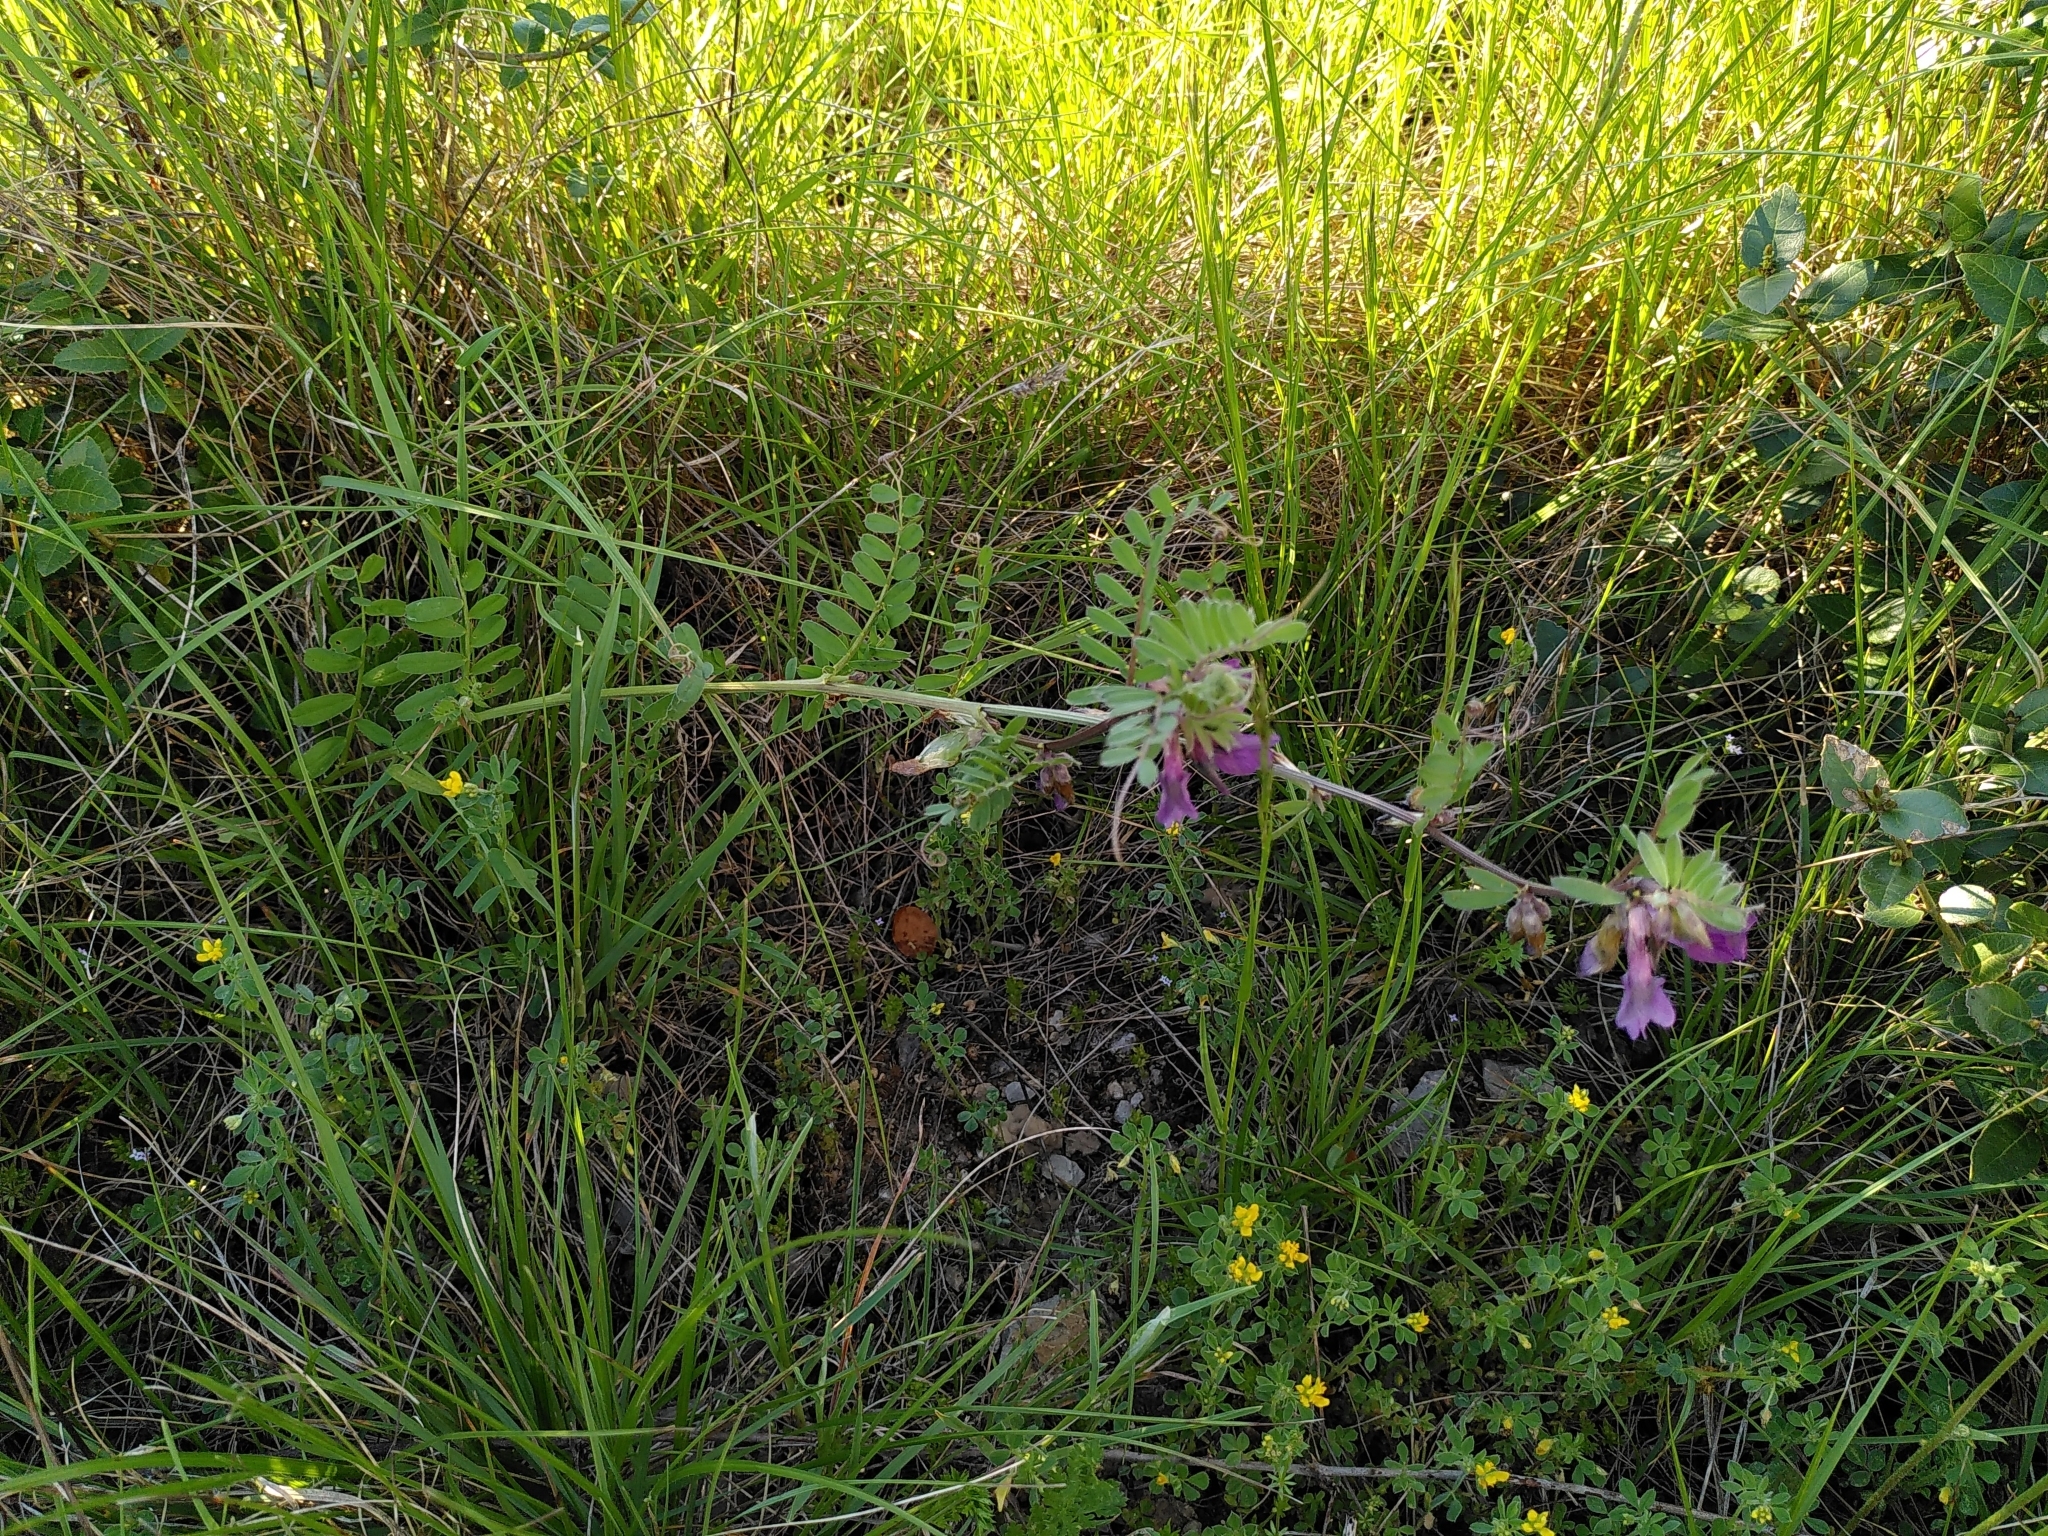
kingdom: Plantae
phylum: Tracheophyta
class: Magnoliopsida
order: Fabales
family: Fabaceae
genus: Vicia
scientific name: Vicia pannonica
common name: Hungarian vetch
